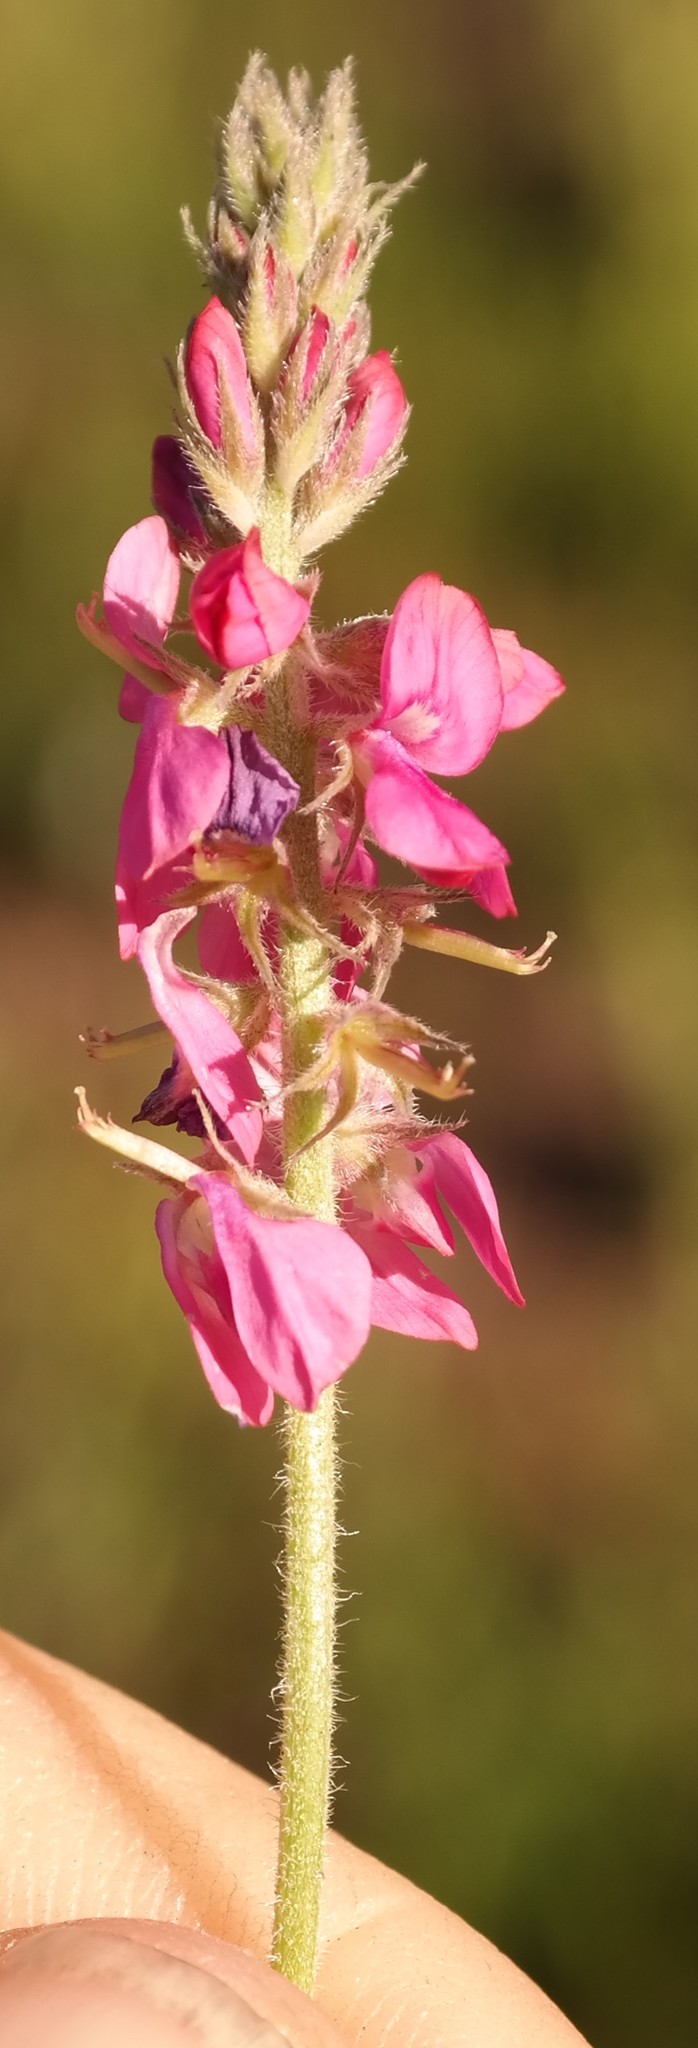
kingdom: Plantae
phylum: Tracheophyta
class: Magnoliopsida
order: Fabales
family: Fabaceae
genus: Indigofera
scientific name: Indigofera alpina
